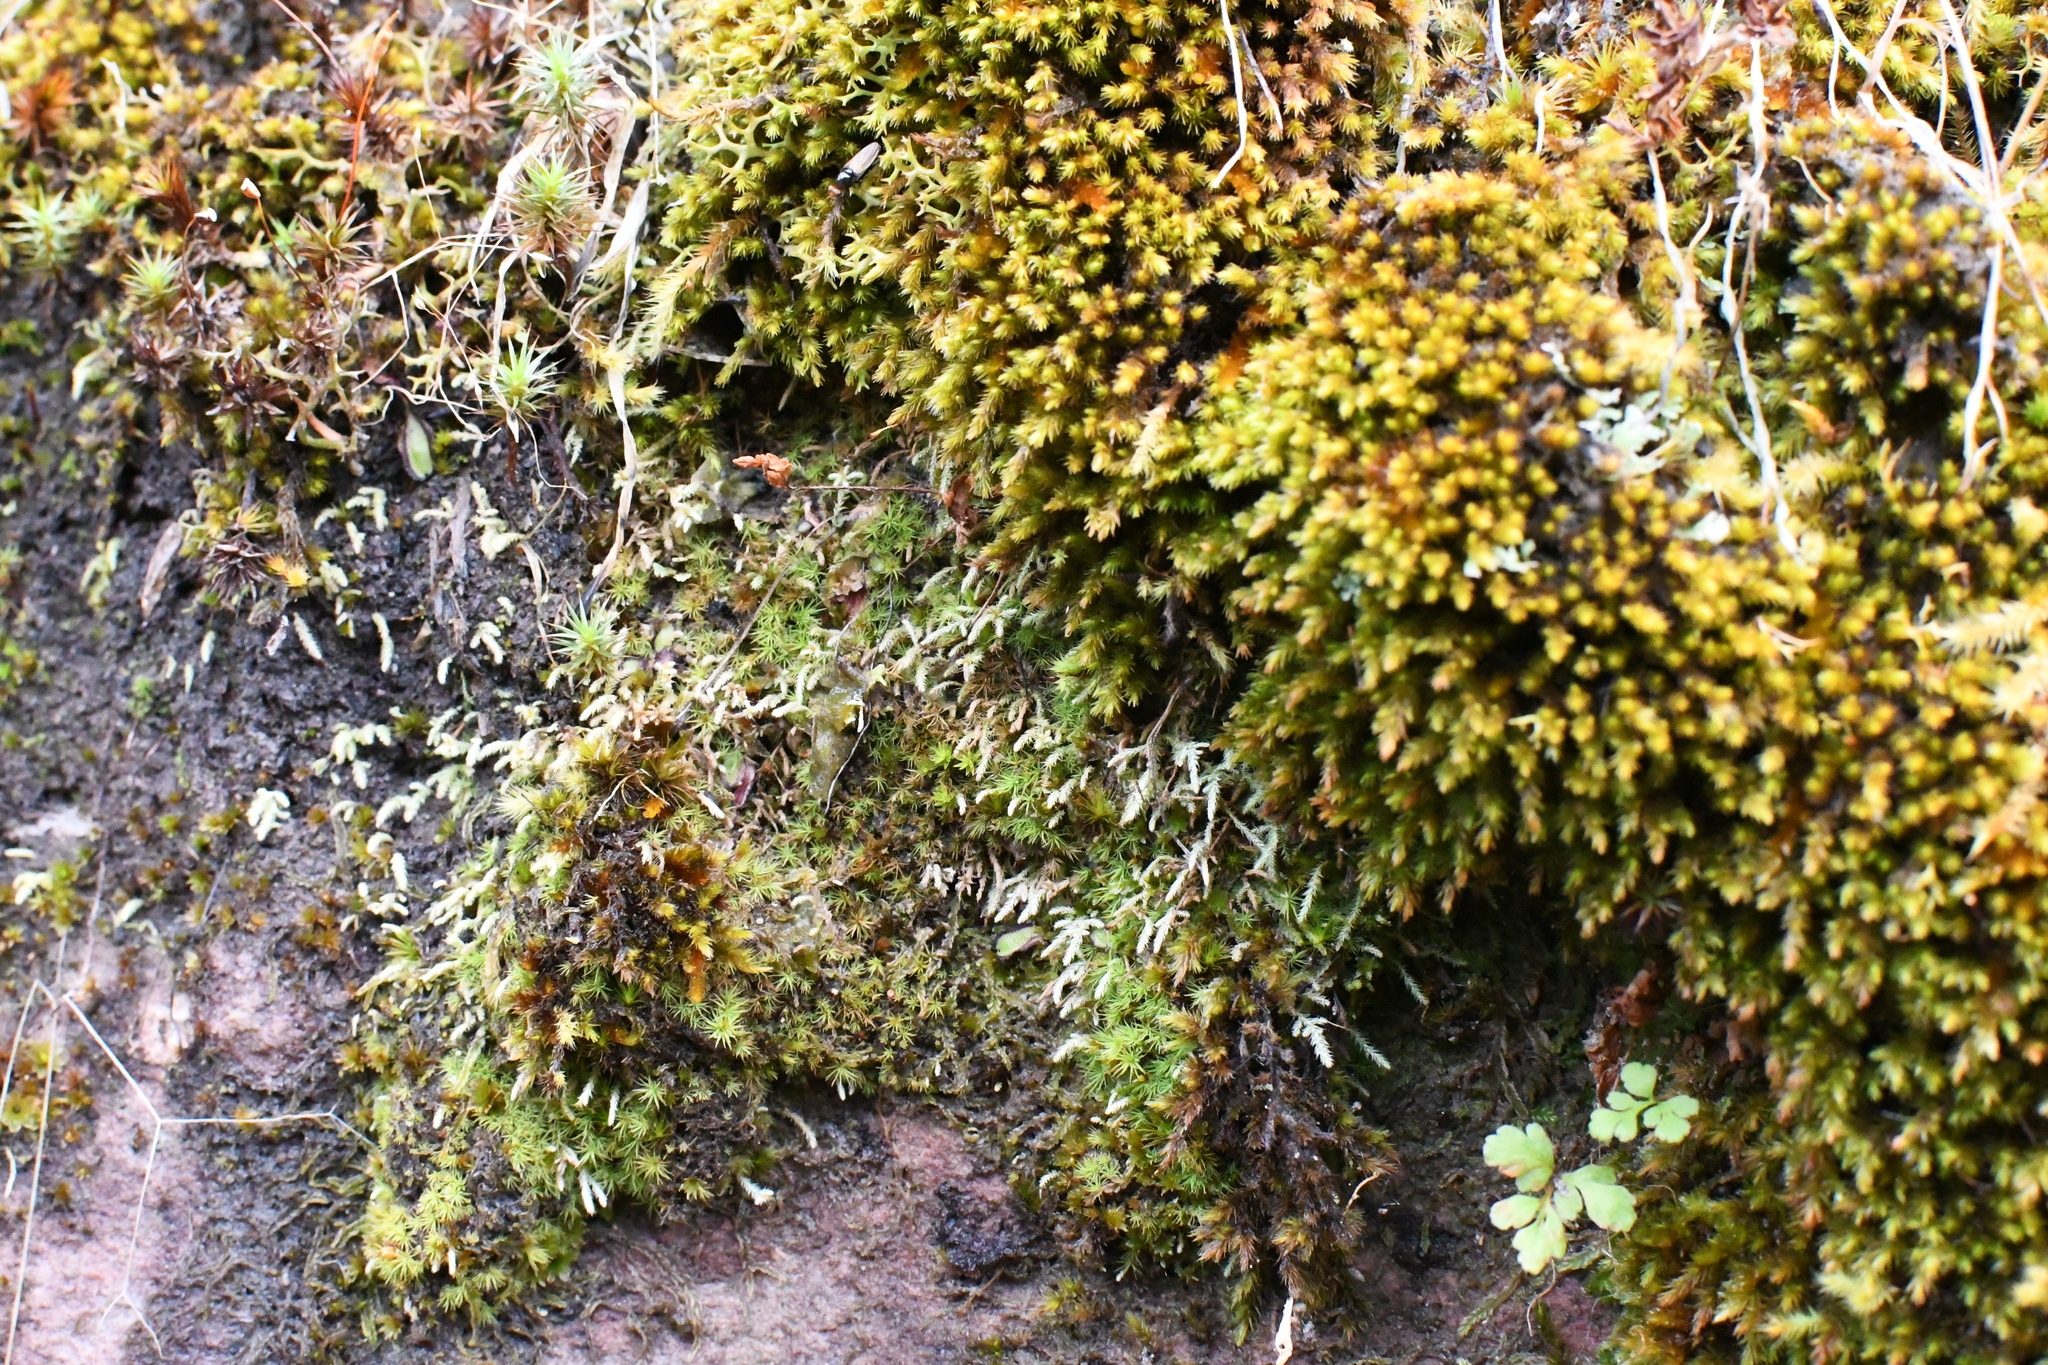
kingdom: Plantae
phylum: Bryophyta
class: Bryopsida
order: Bartramiales
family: Bartramiaceae
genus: Philonotis
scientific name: Philonotis scabrifolia
